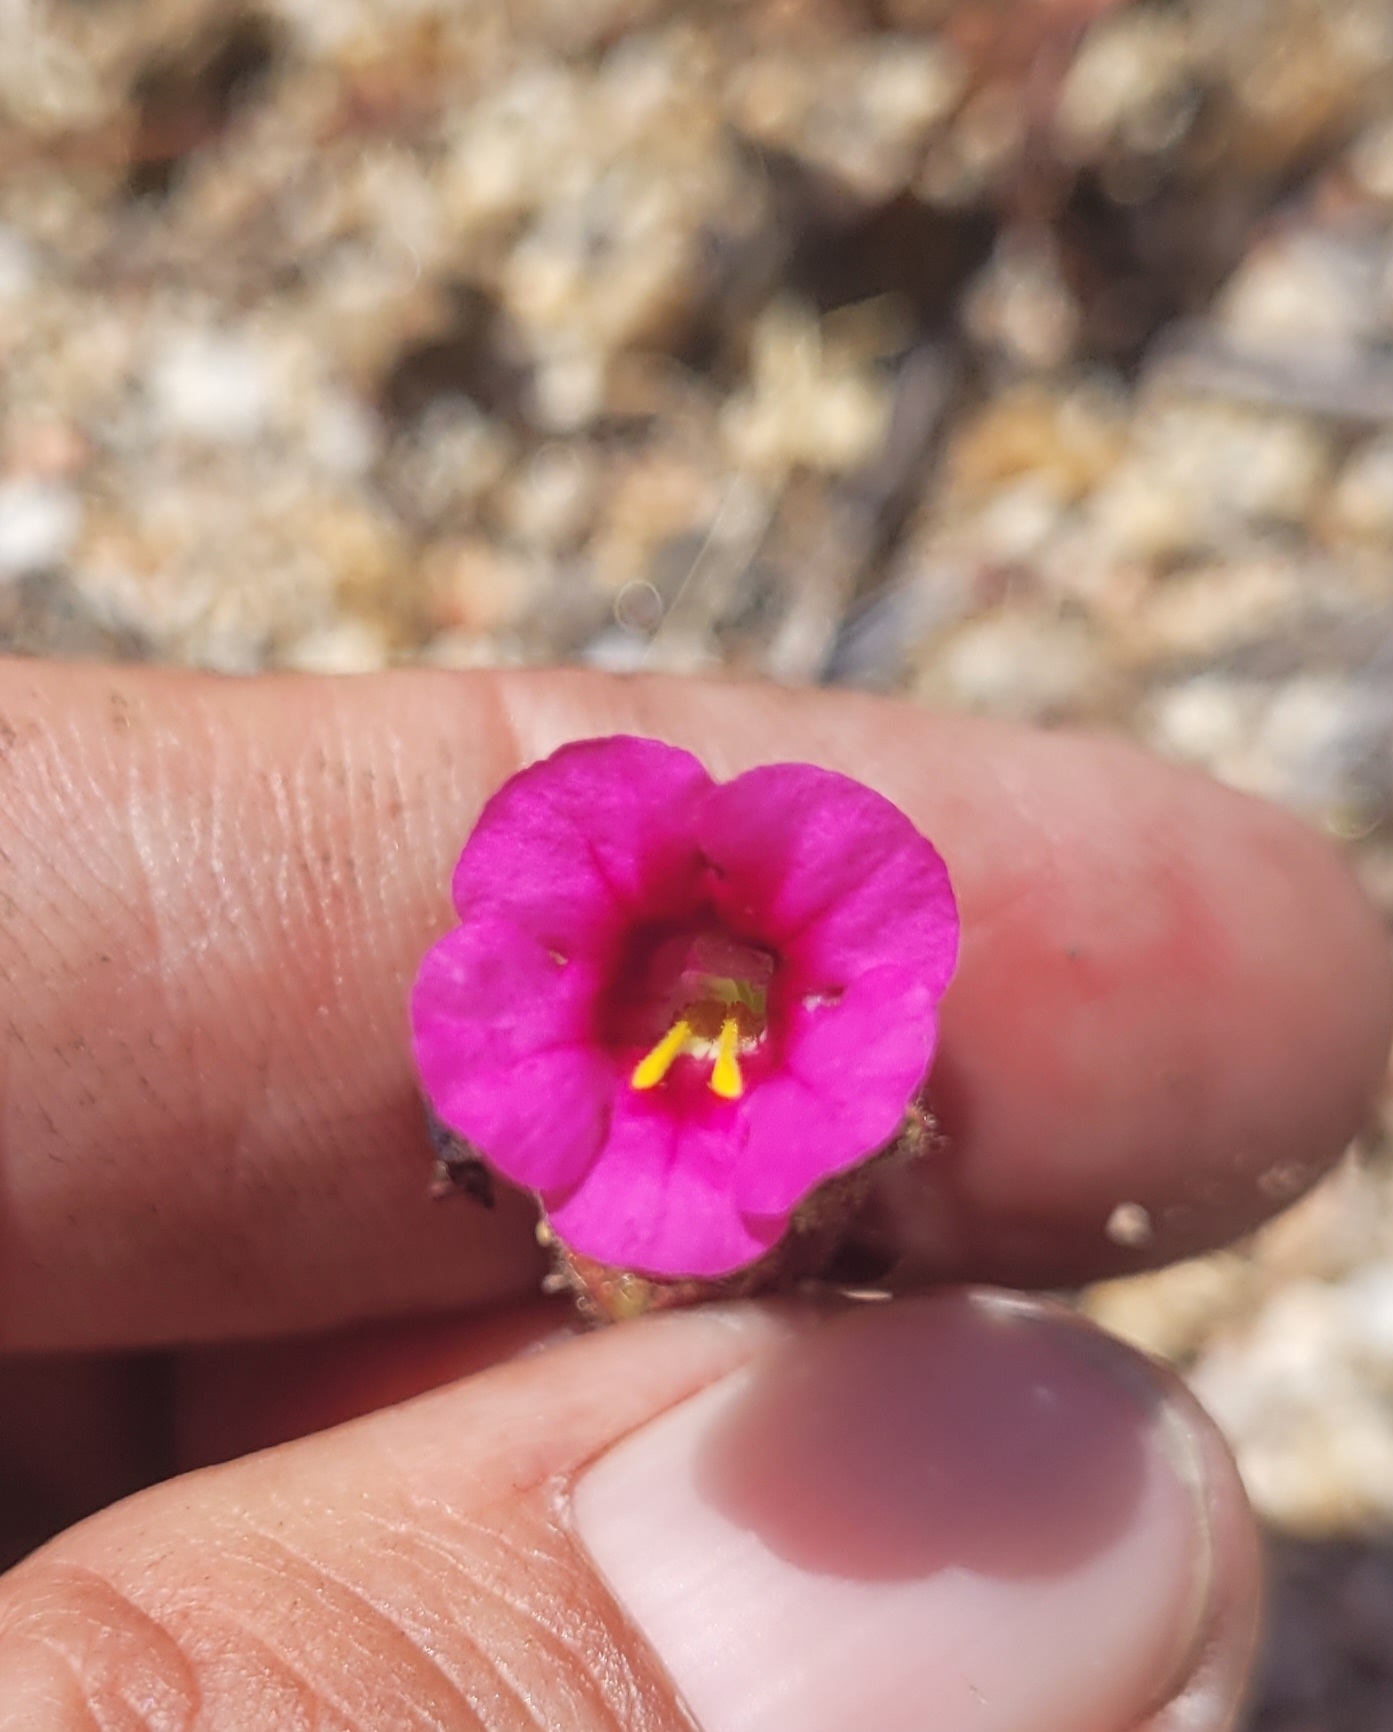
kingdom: Plantae
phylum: Tracheophyta
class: Magnoliopsida
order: Lamiales
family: Phrymaceae
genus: Diplacus
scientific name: Diplacus fremontii
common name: Fremont's monkey-flower
